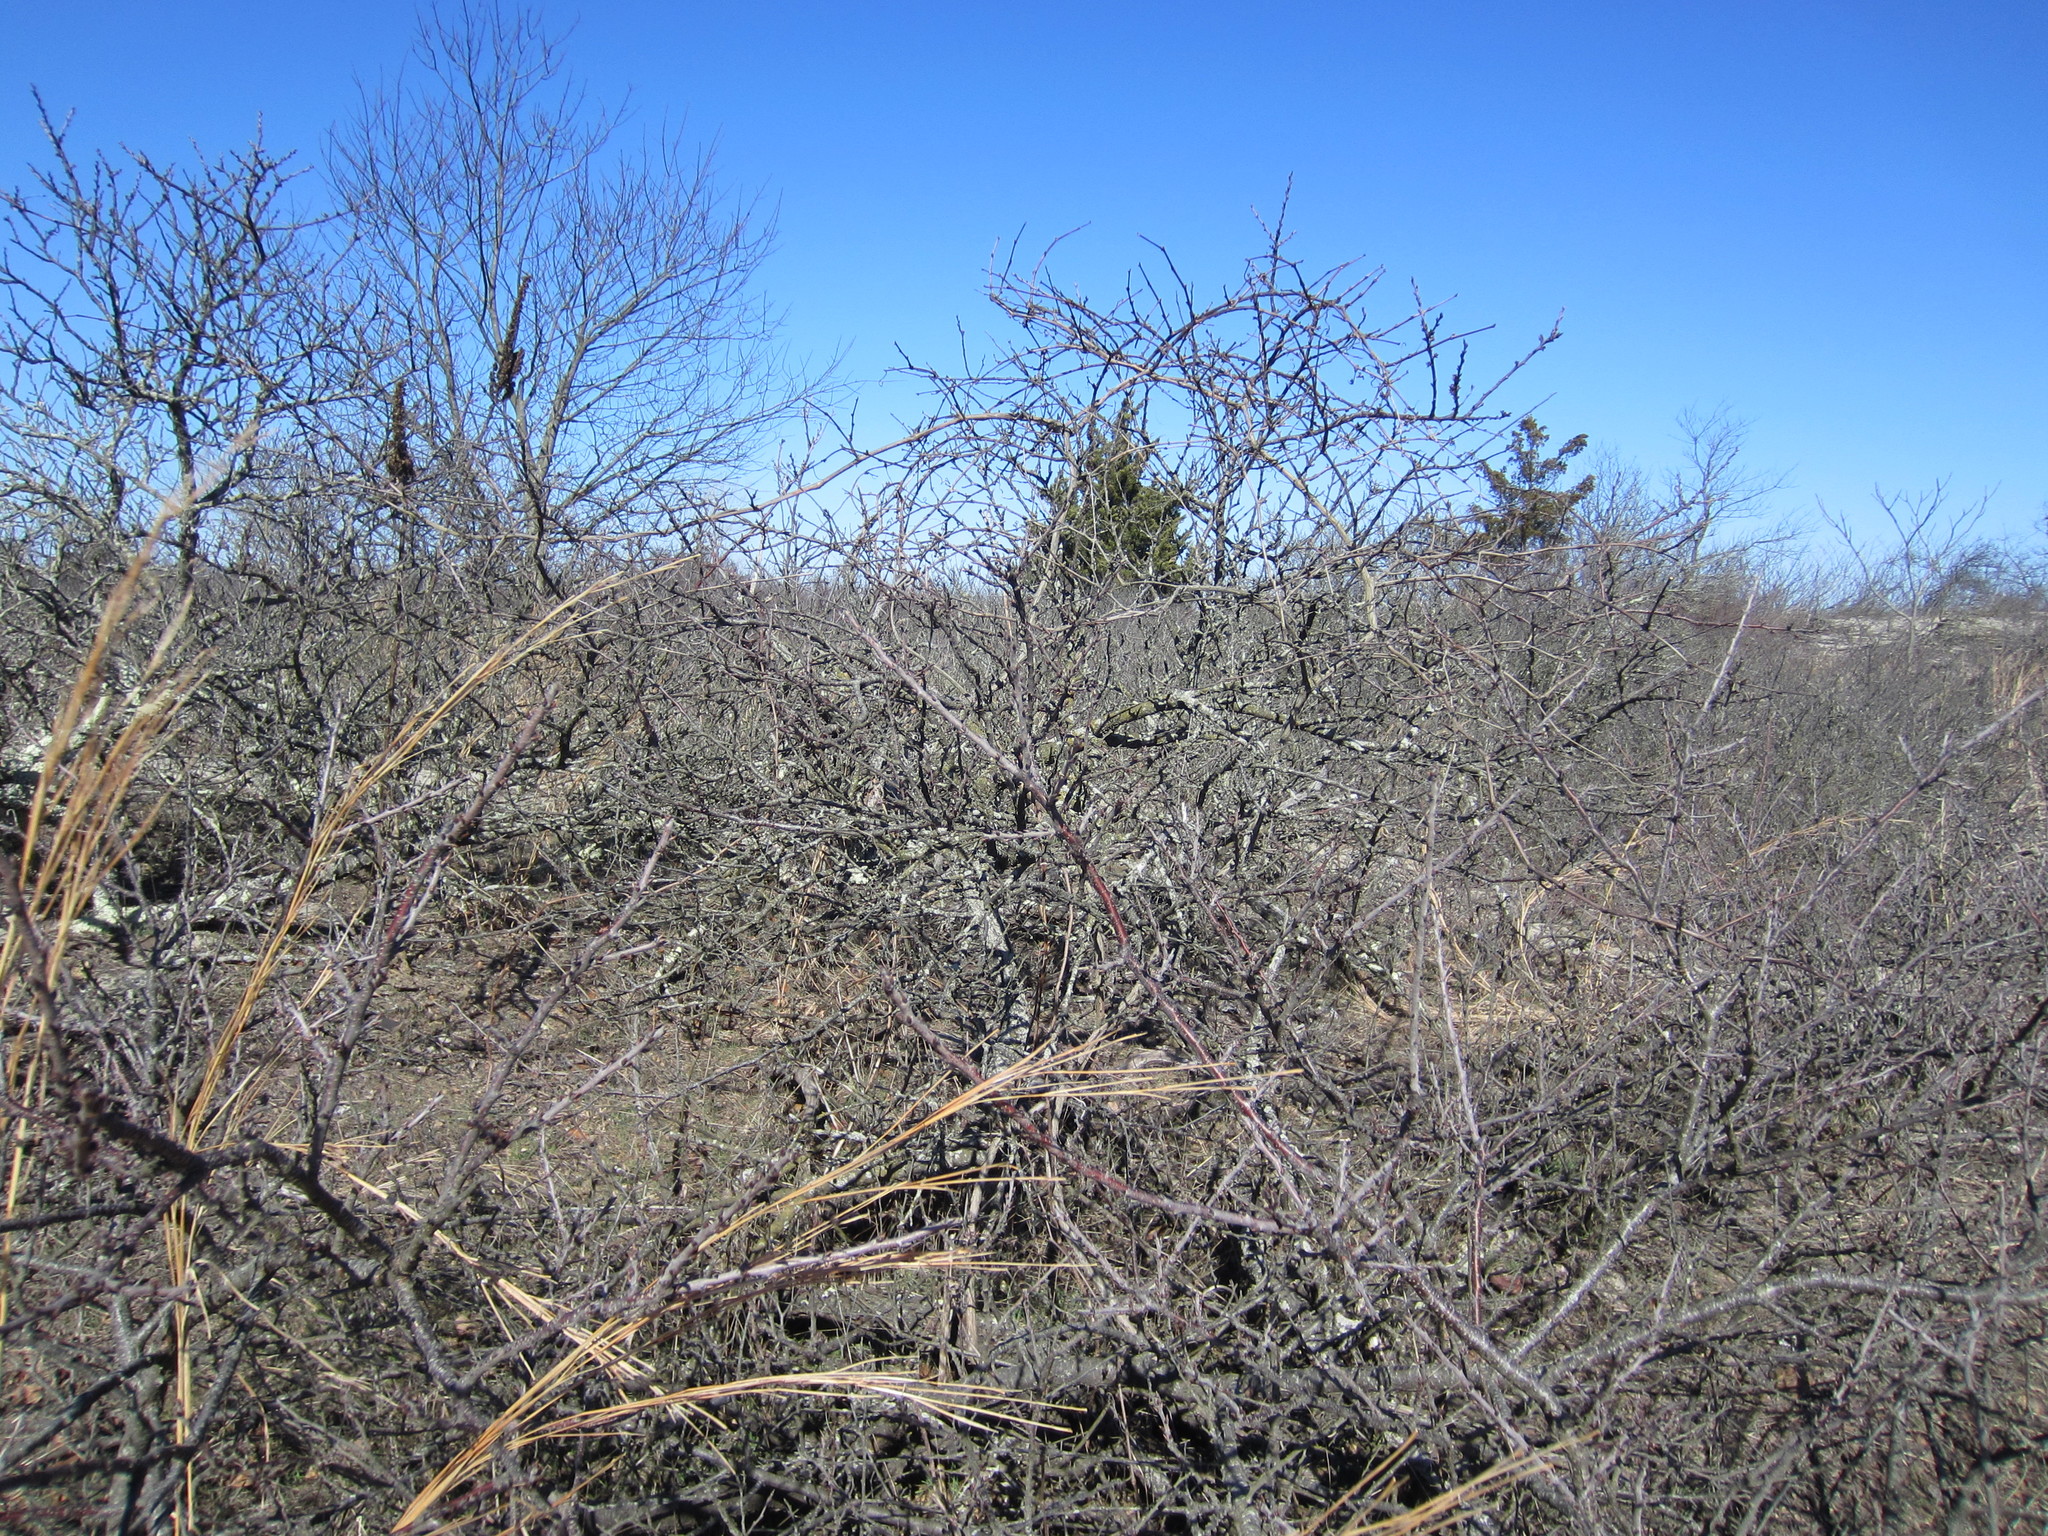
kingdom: Plantae
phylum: Tracheophyta
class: Magnoliopsida
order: Rosales
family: Rosaceae
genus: Prunus
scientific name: Prunus maritima
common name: Beach plum
